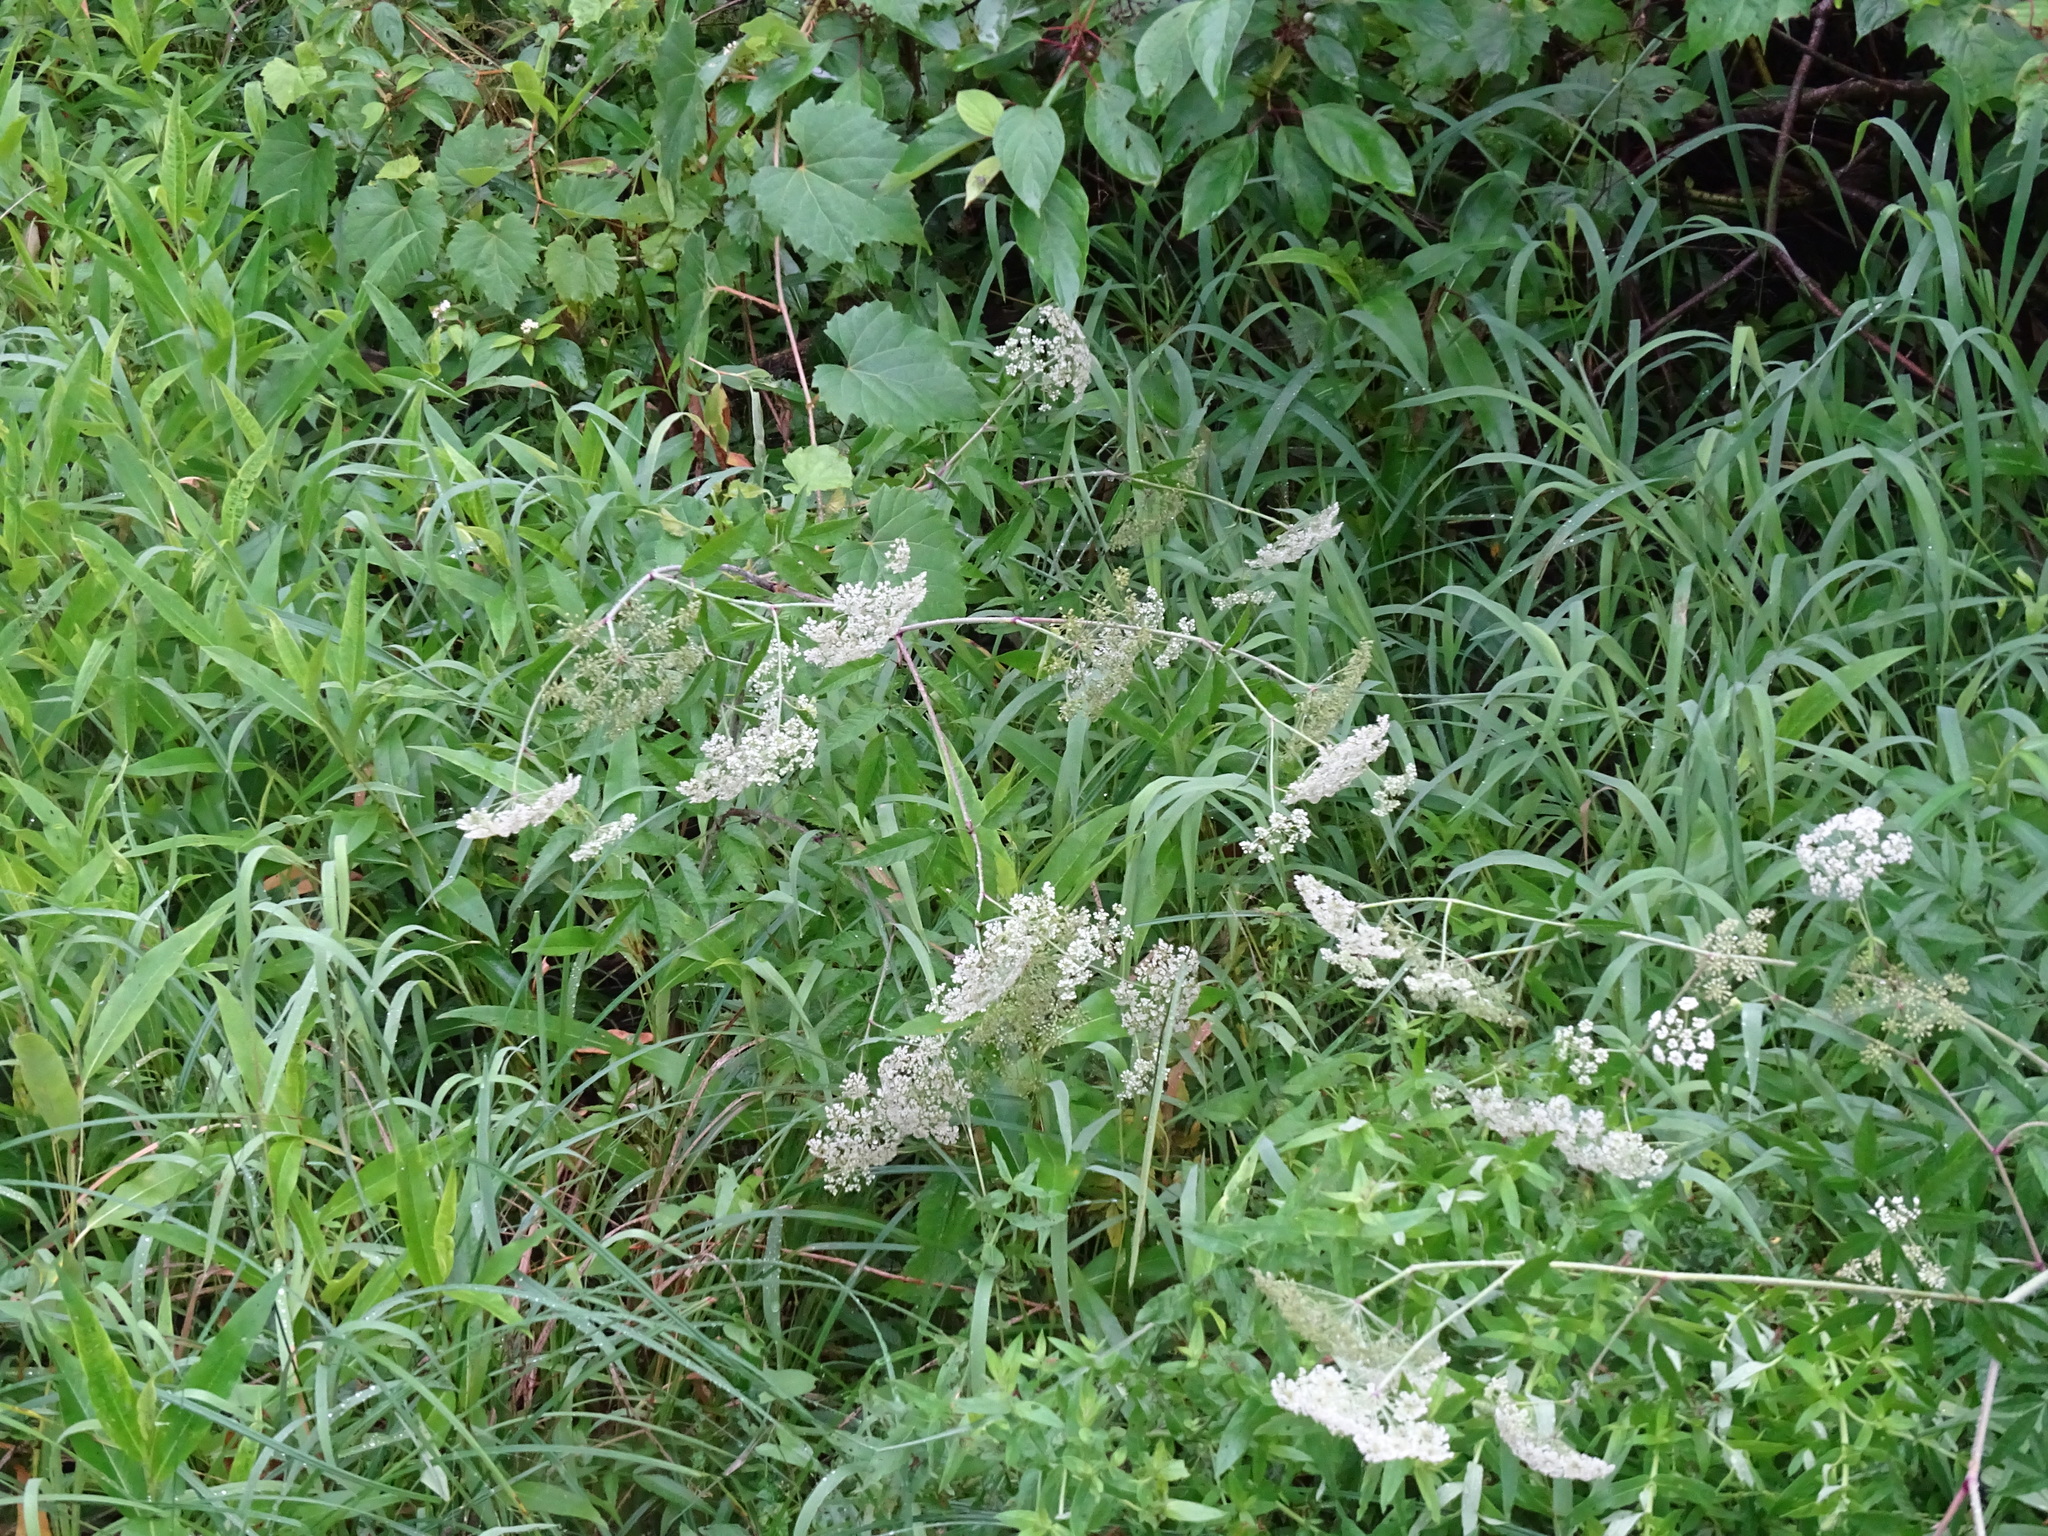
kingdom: Plantae
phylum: Tracheophyta
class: Magnoliopsida
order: Apiales
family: Apiaceae
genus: Cicuta
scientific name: Cicuta maculata
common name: Spotted cowbane
